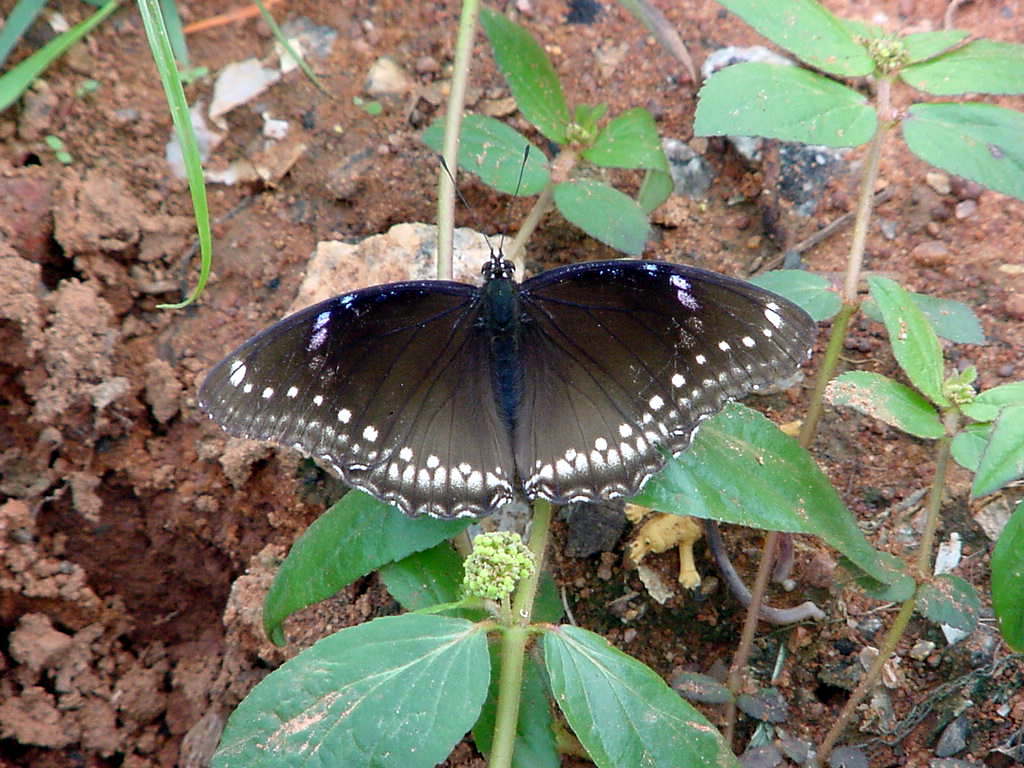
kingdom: Animalia
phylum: Arthropoda
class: Insecta
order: Lepidoptera
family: Nymphalidae
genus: Hypolimnas
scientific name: Hypolimnas bolina
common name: Great eggfly
